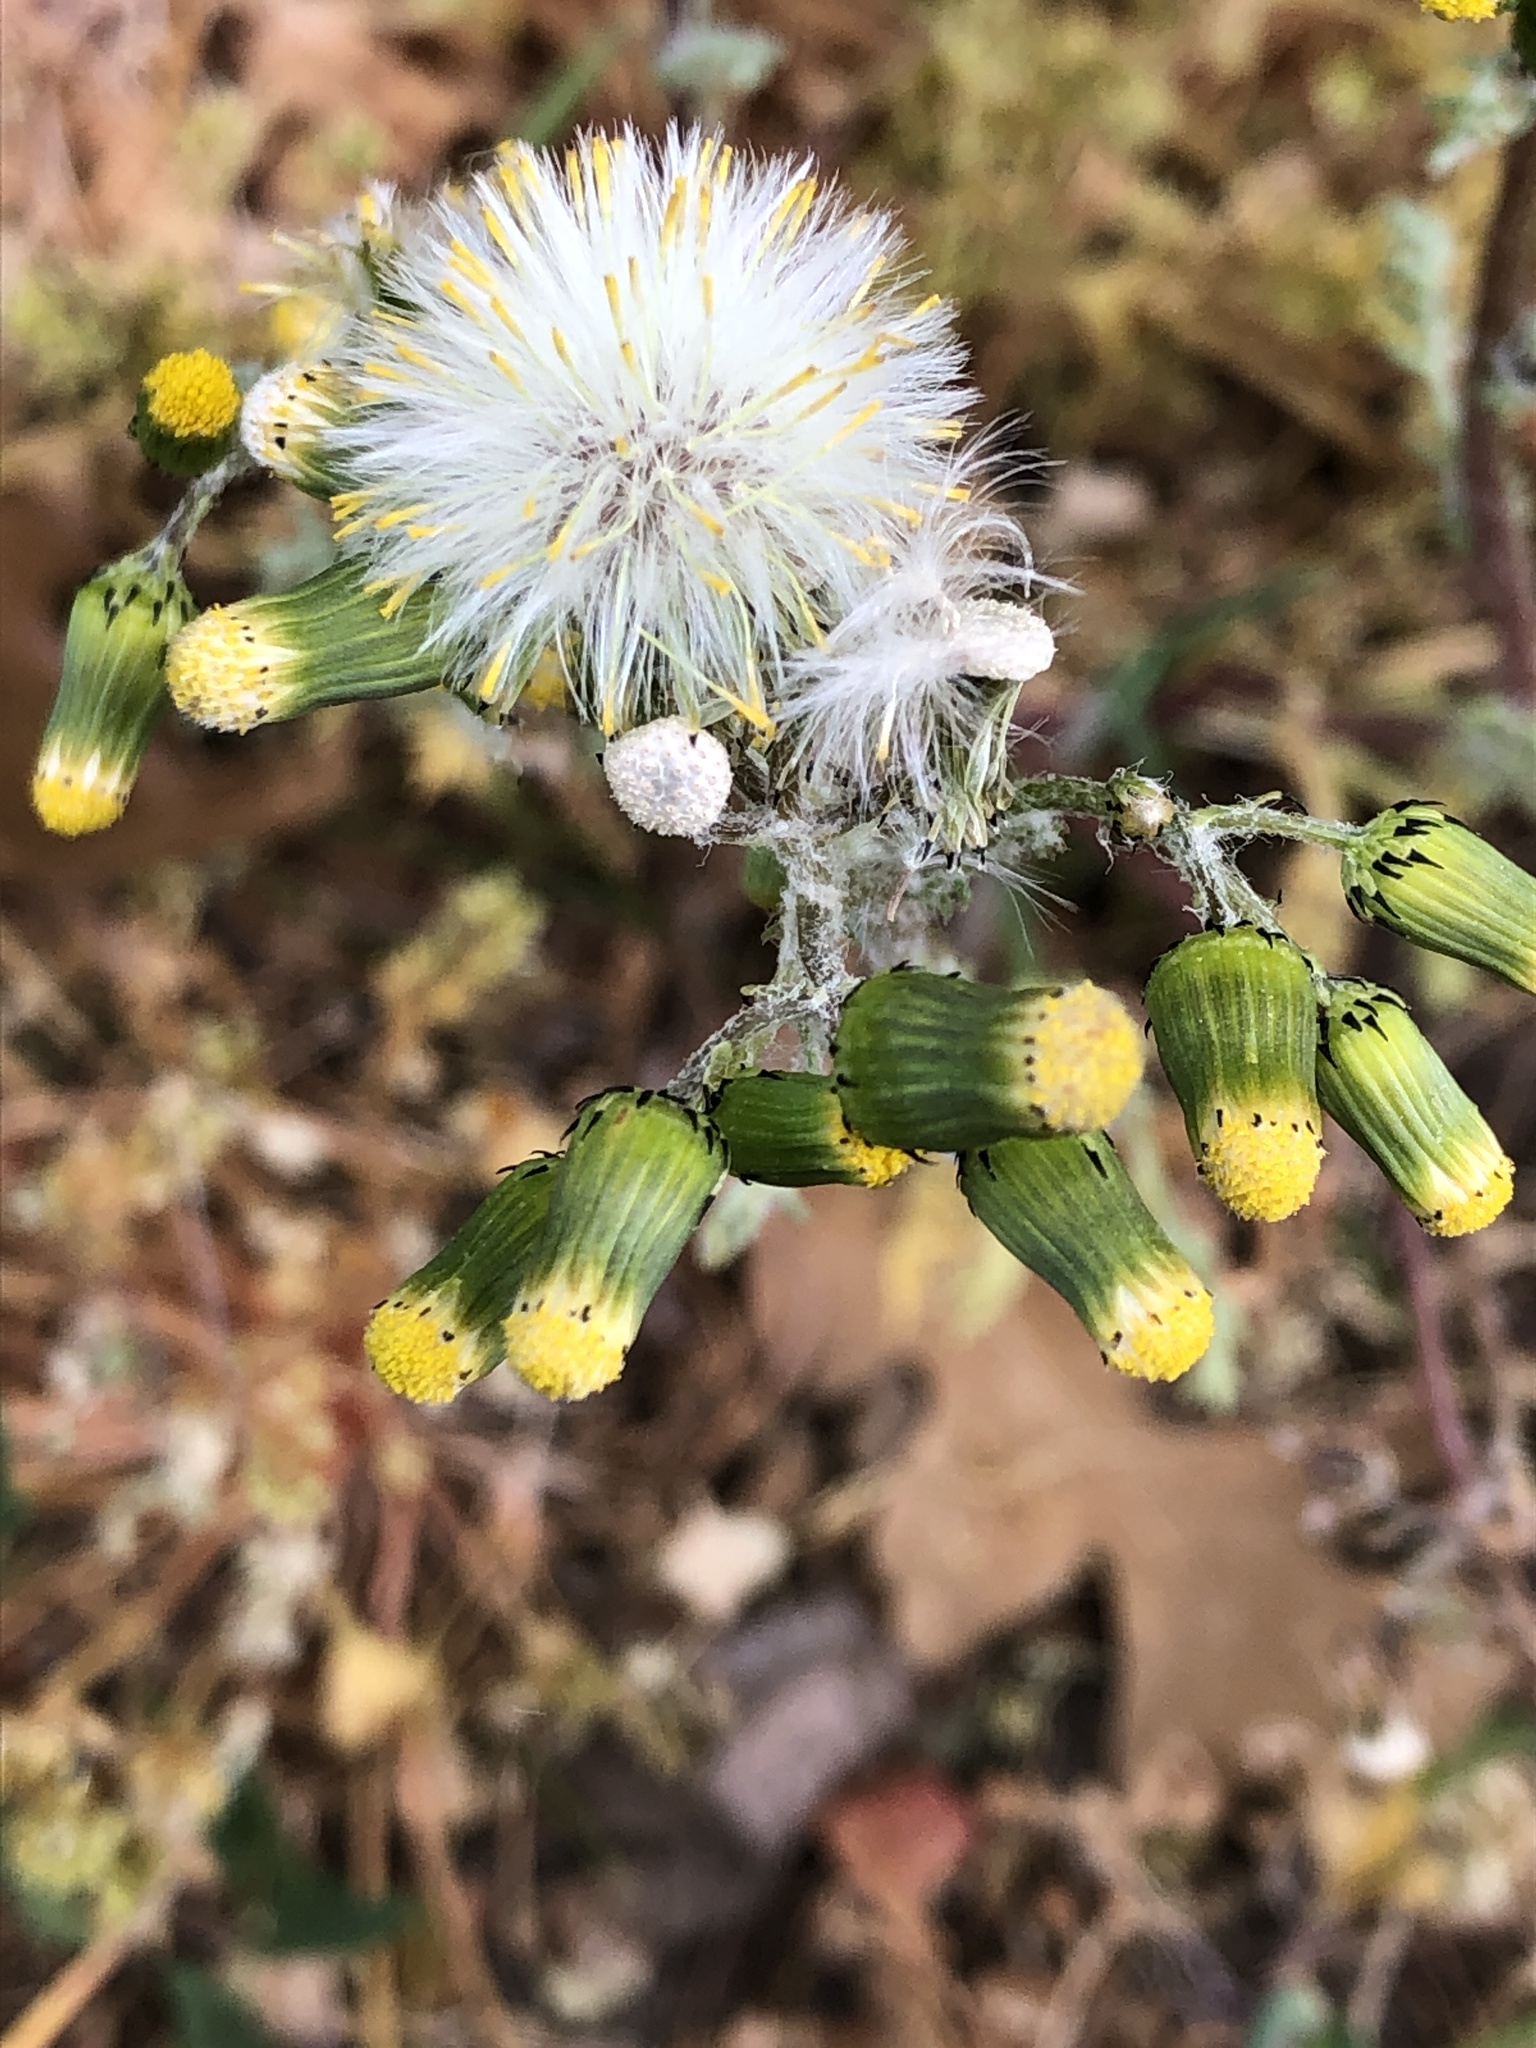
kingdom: Plantae
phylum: Tracheophyta
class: Magnoliopsida
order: Asterales
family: Asteraceae
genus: Senecio
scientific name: Senecio vulgaris
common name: Old-man-in-the-spring
